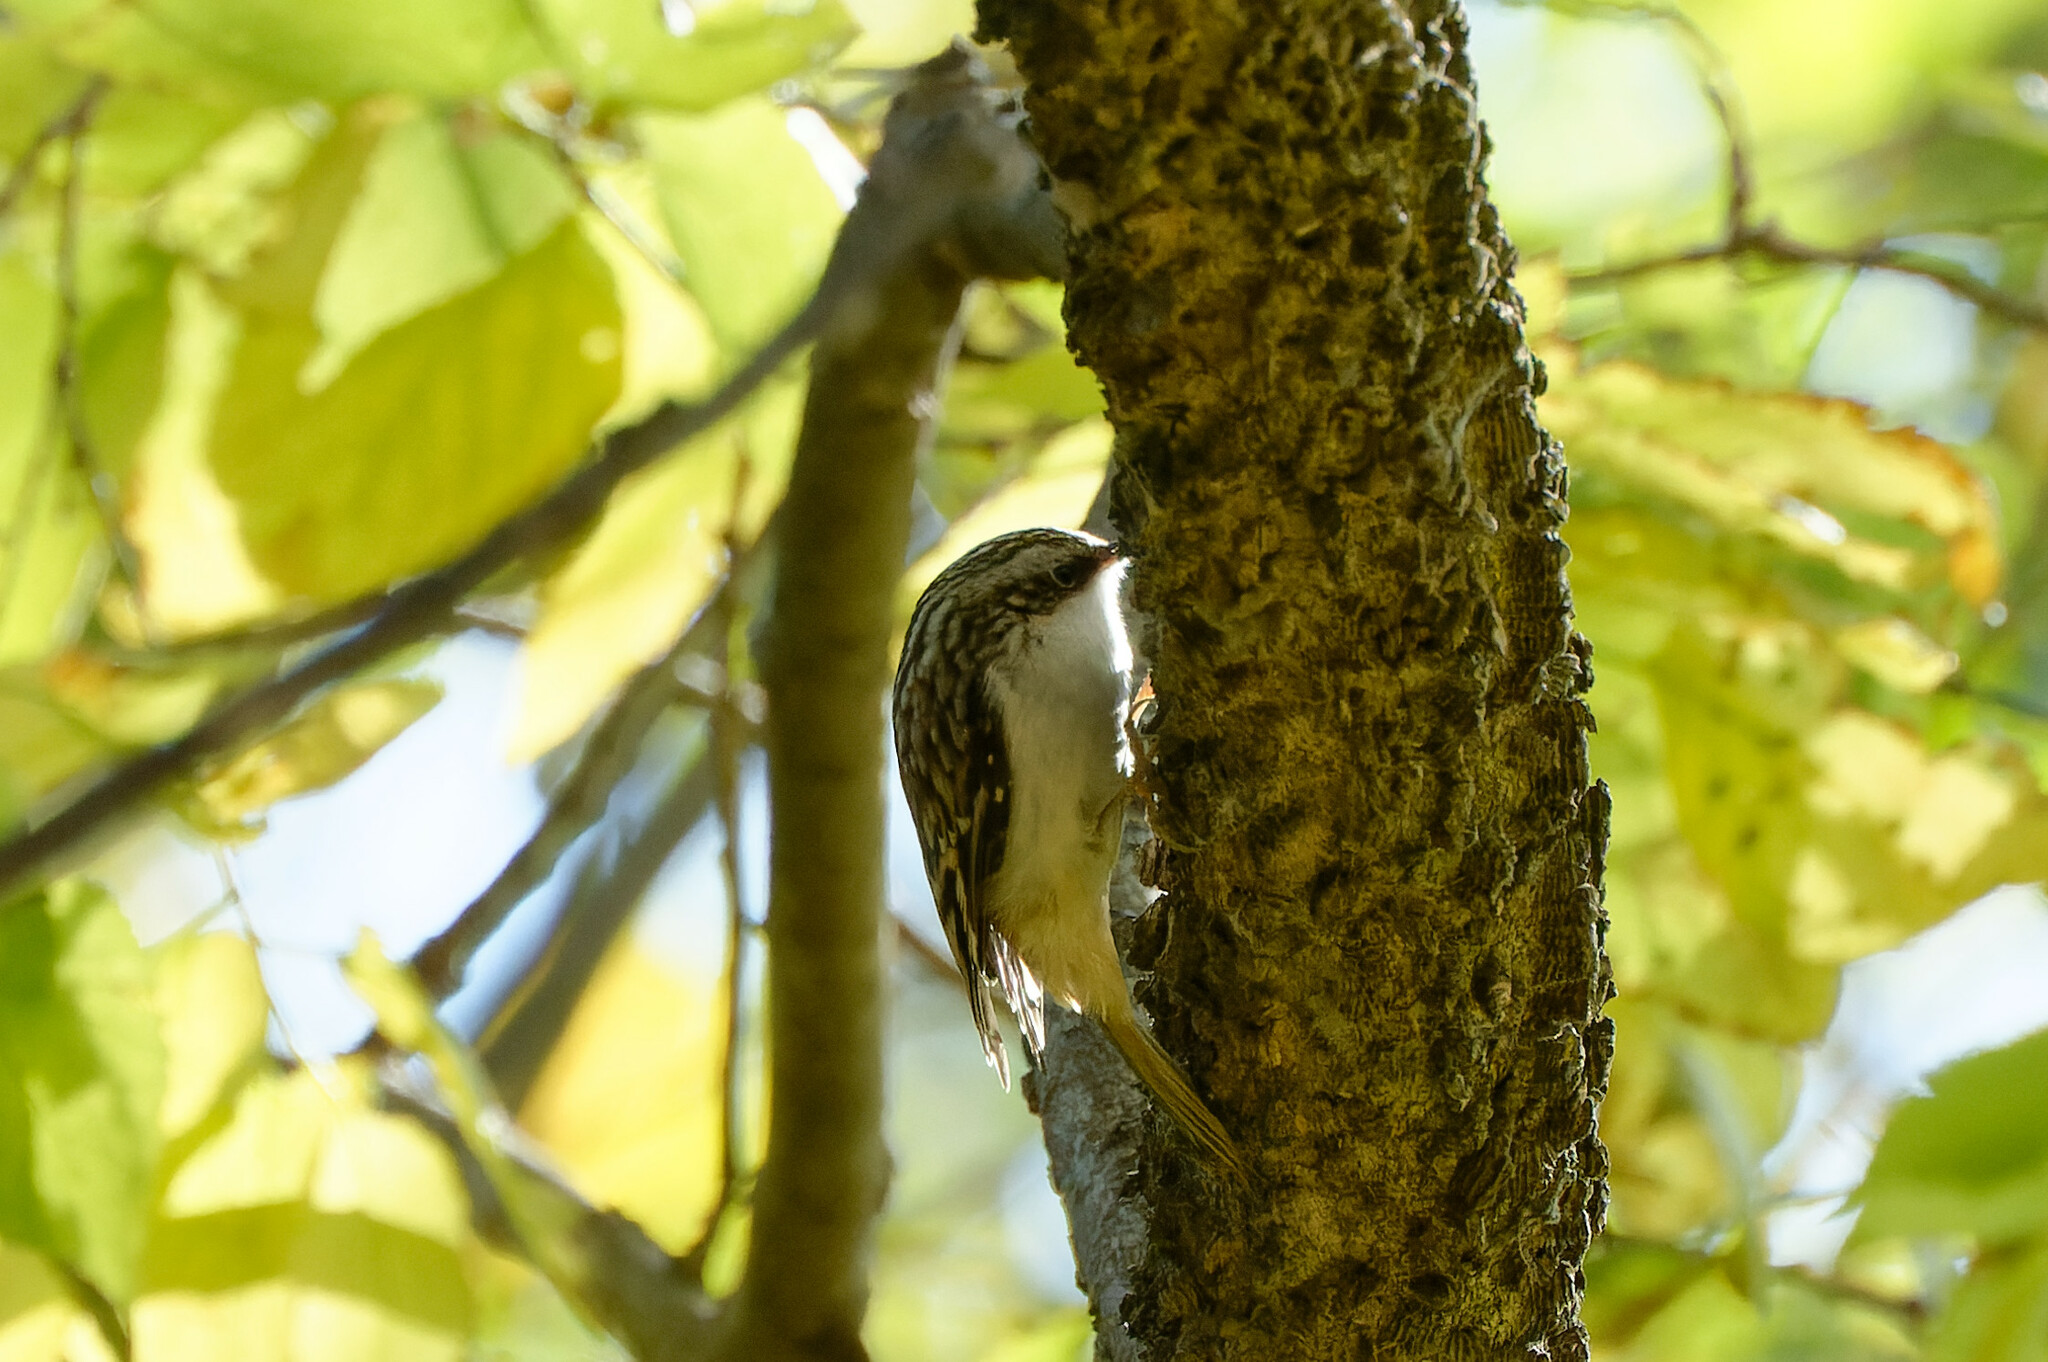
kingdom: Animalia
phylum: Chordata
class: Aves
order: Passeriformes
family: Certhiidae
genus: Certhia
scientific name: Certhia americana
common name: Brown creeper
